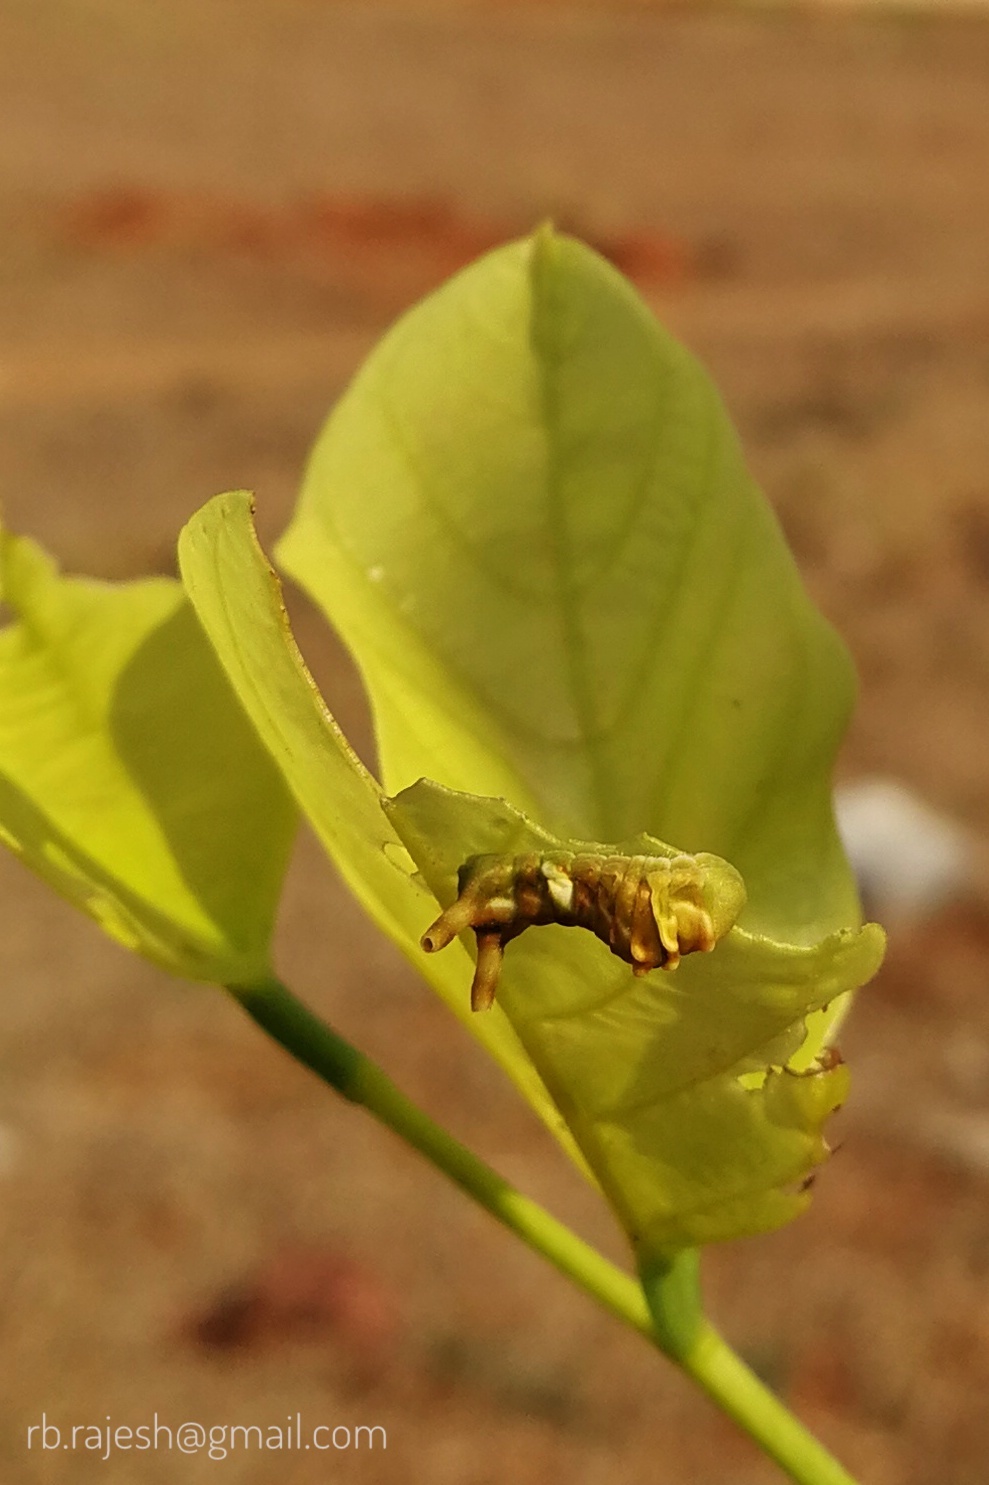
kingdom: Animalia
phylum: Arthropoda
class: Insecta
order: Lepidoptera
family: Lycaenidae
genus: Curetis
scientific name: Curetis thetis
